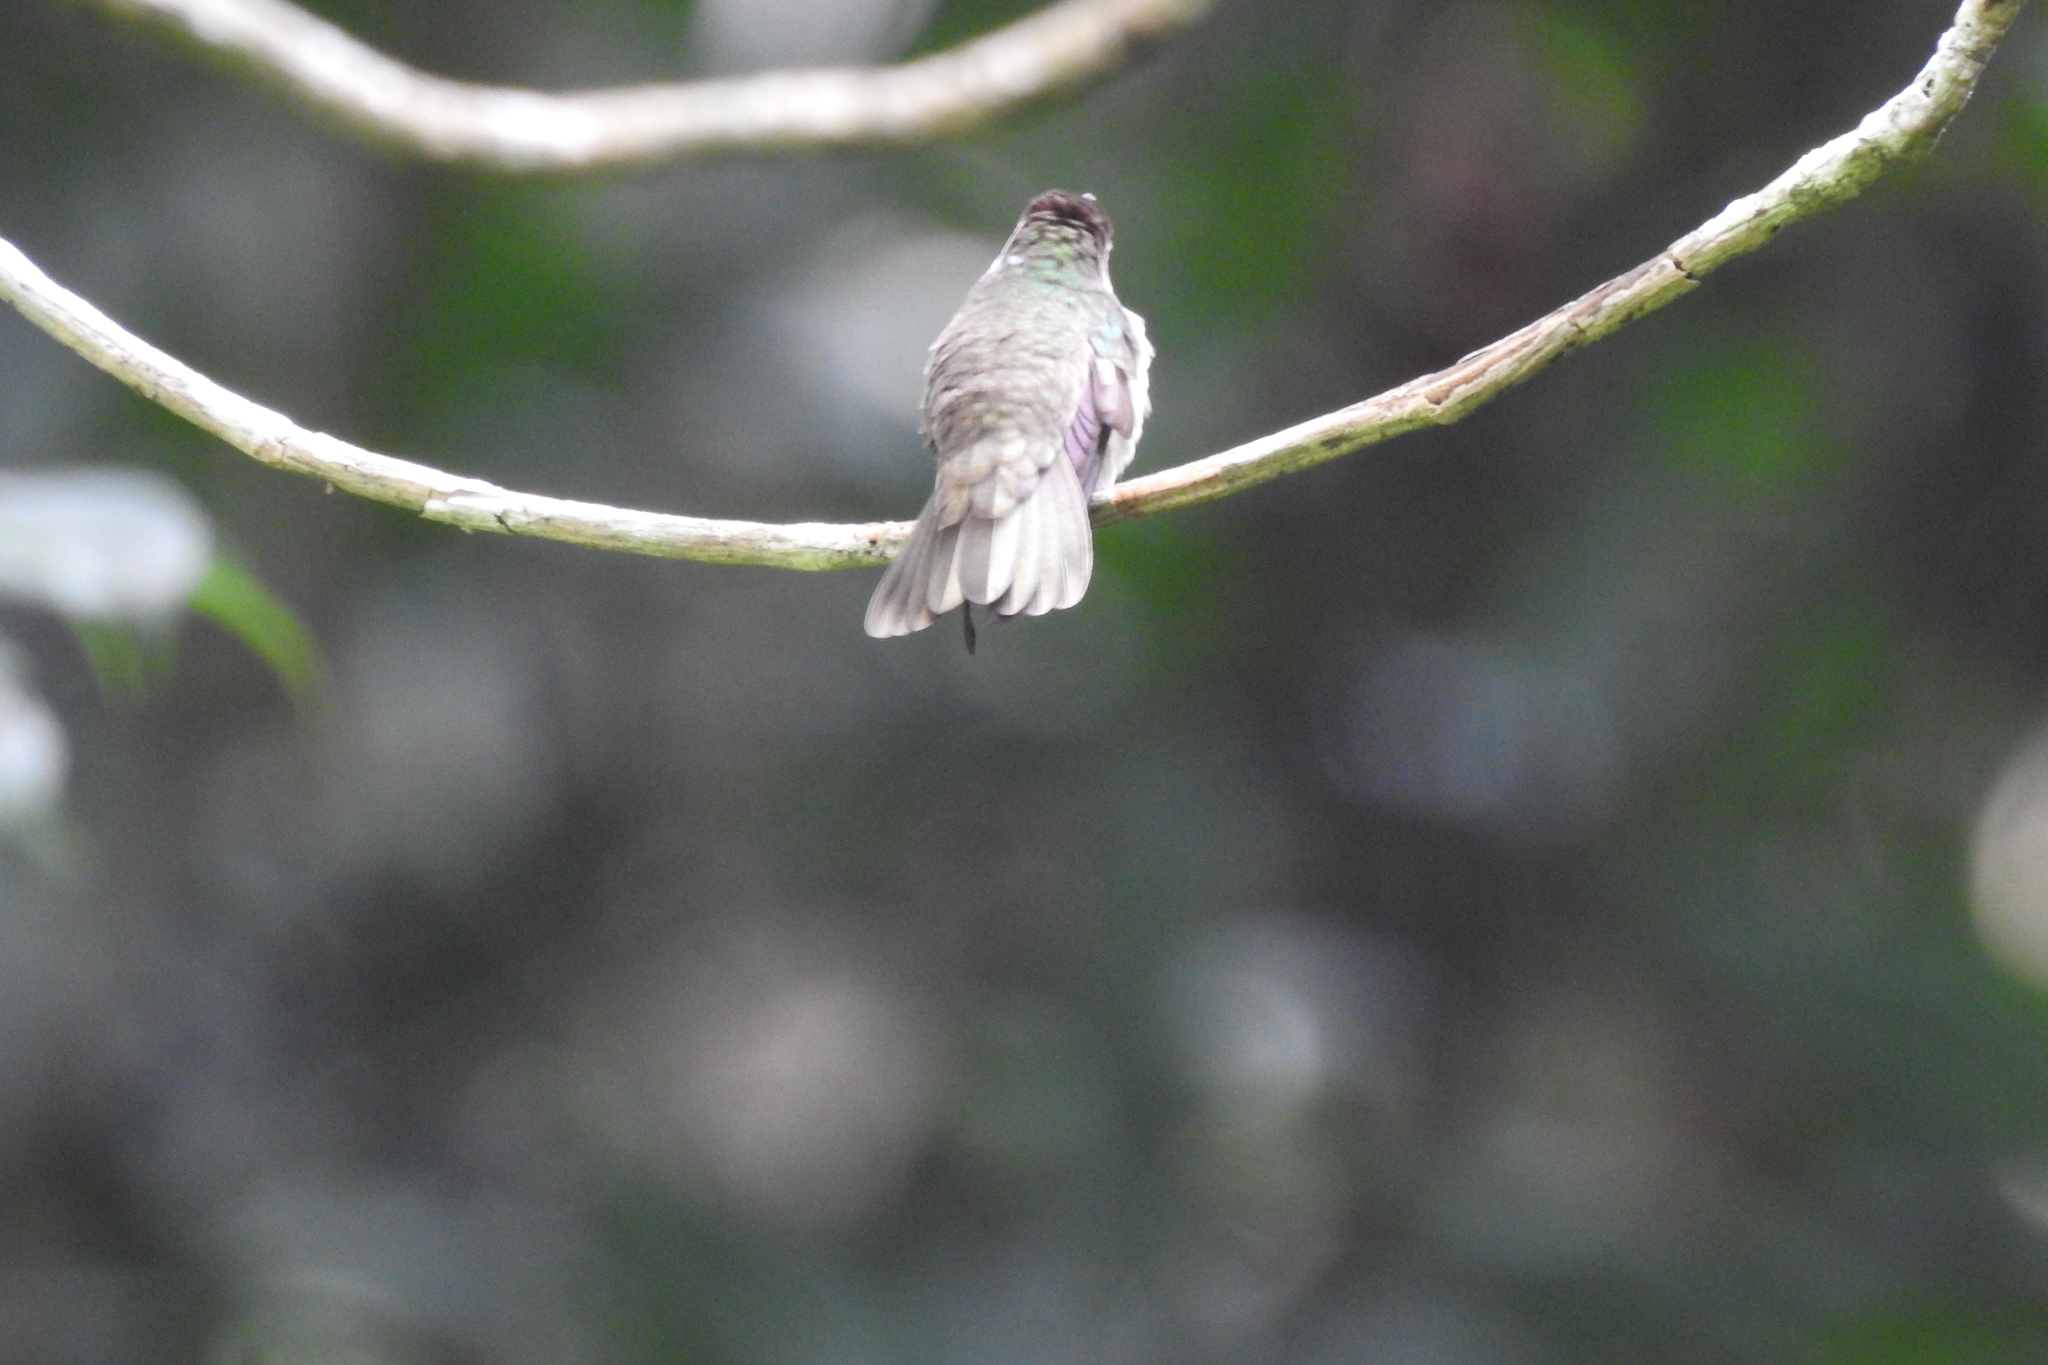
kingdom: Animalia
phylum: Chordata
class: Aves
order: Apodiformes
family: Trochilidae
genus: Pampa
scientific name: Pampa curvipennis
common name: Curve-winged sabrewing
